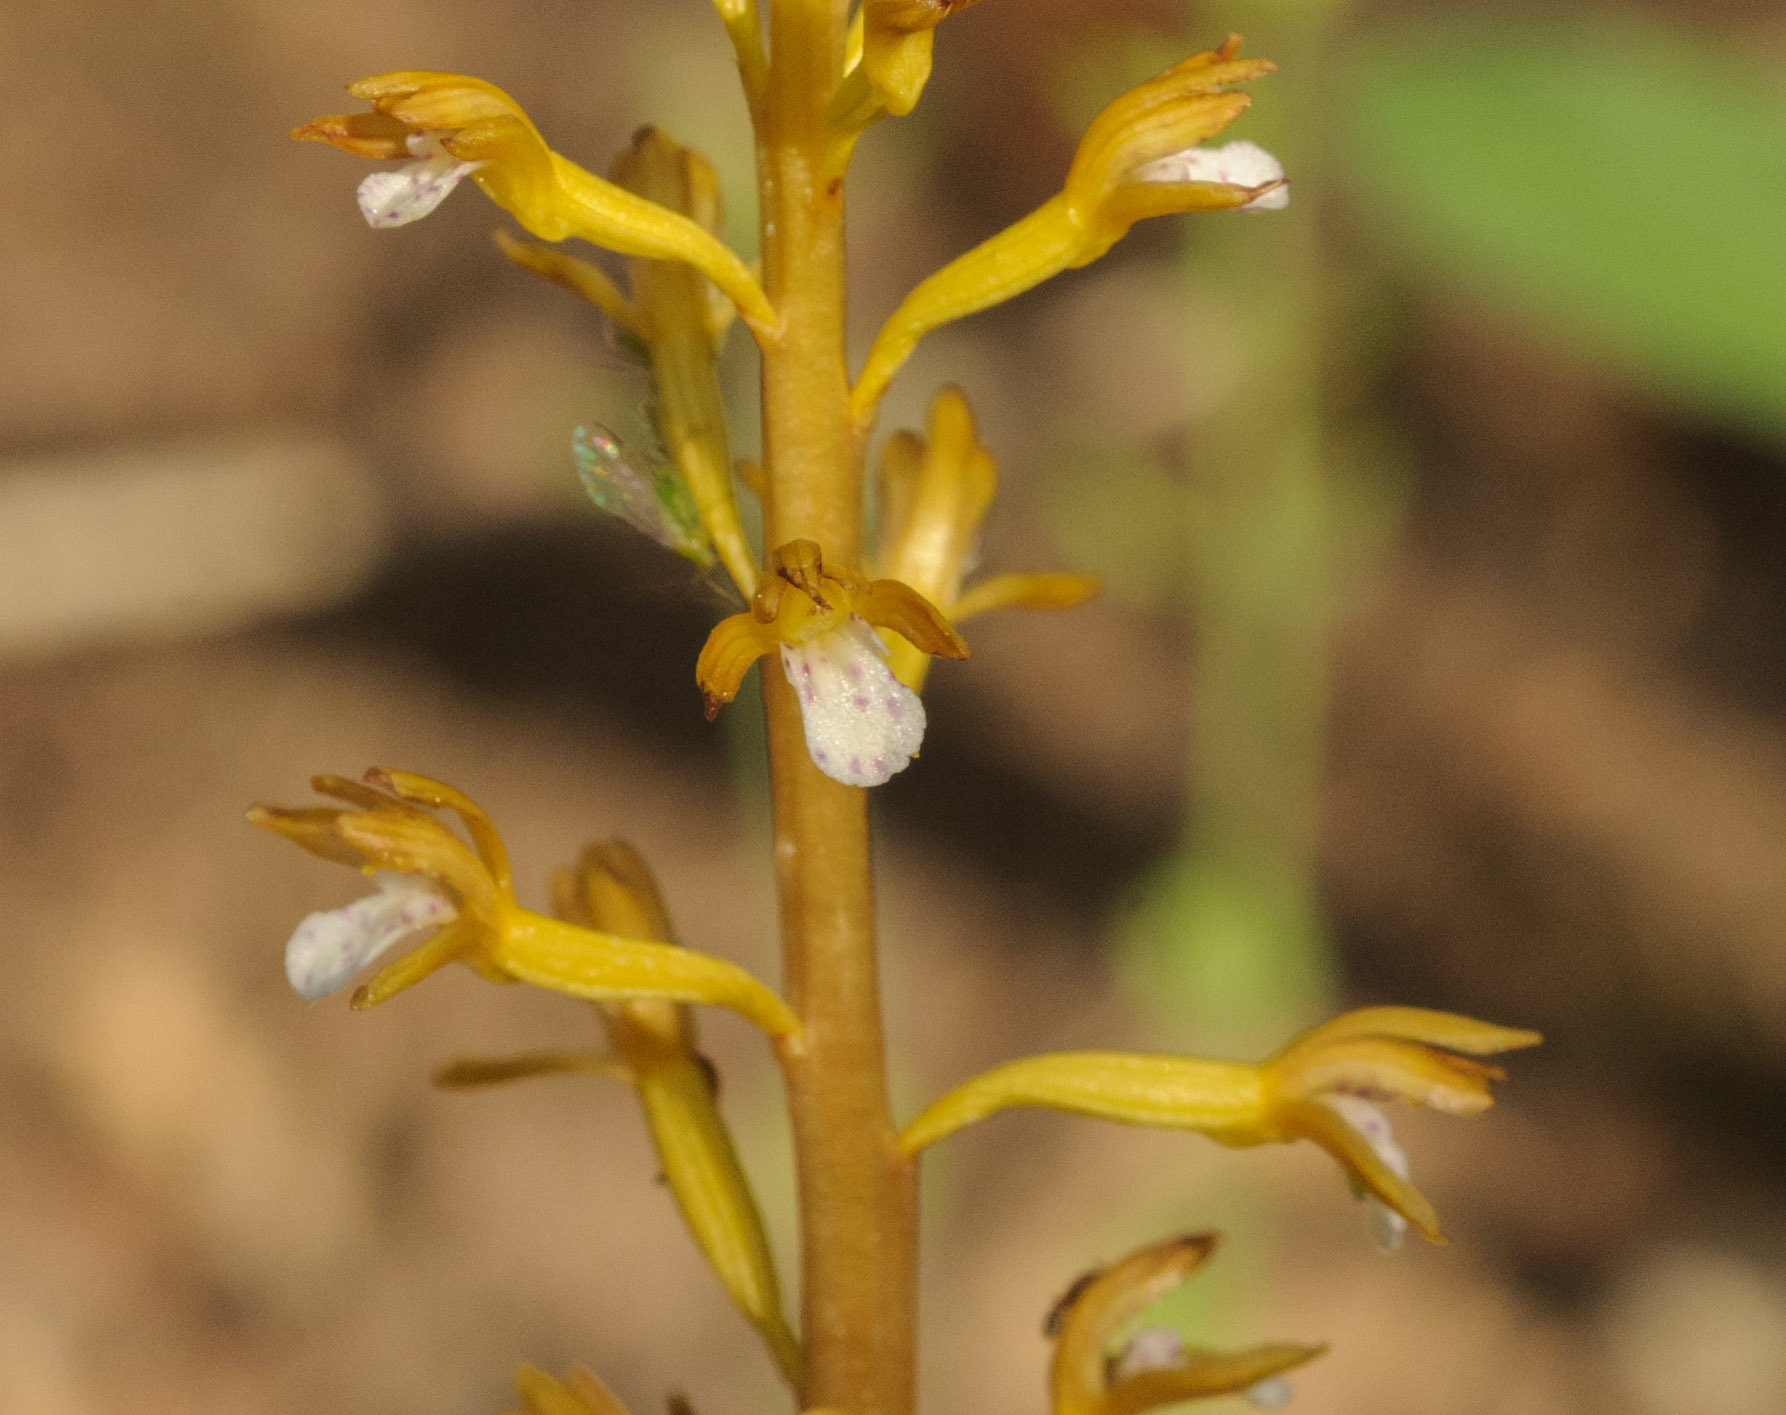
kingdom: Plantae
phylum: Tracheophyta
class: Liliopsida
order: Asparagales
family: Orchidaceae
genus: Corallorhiza
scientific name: Corallorhiza maculata
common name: Spotted coralroot
